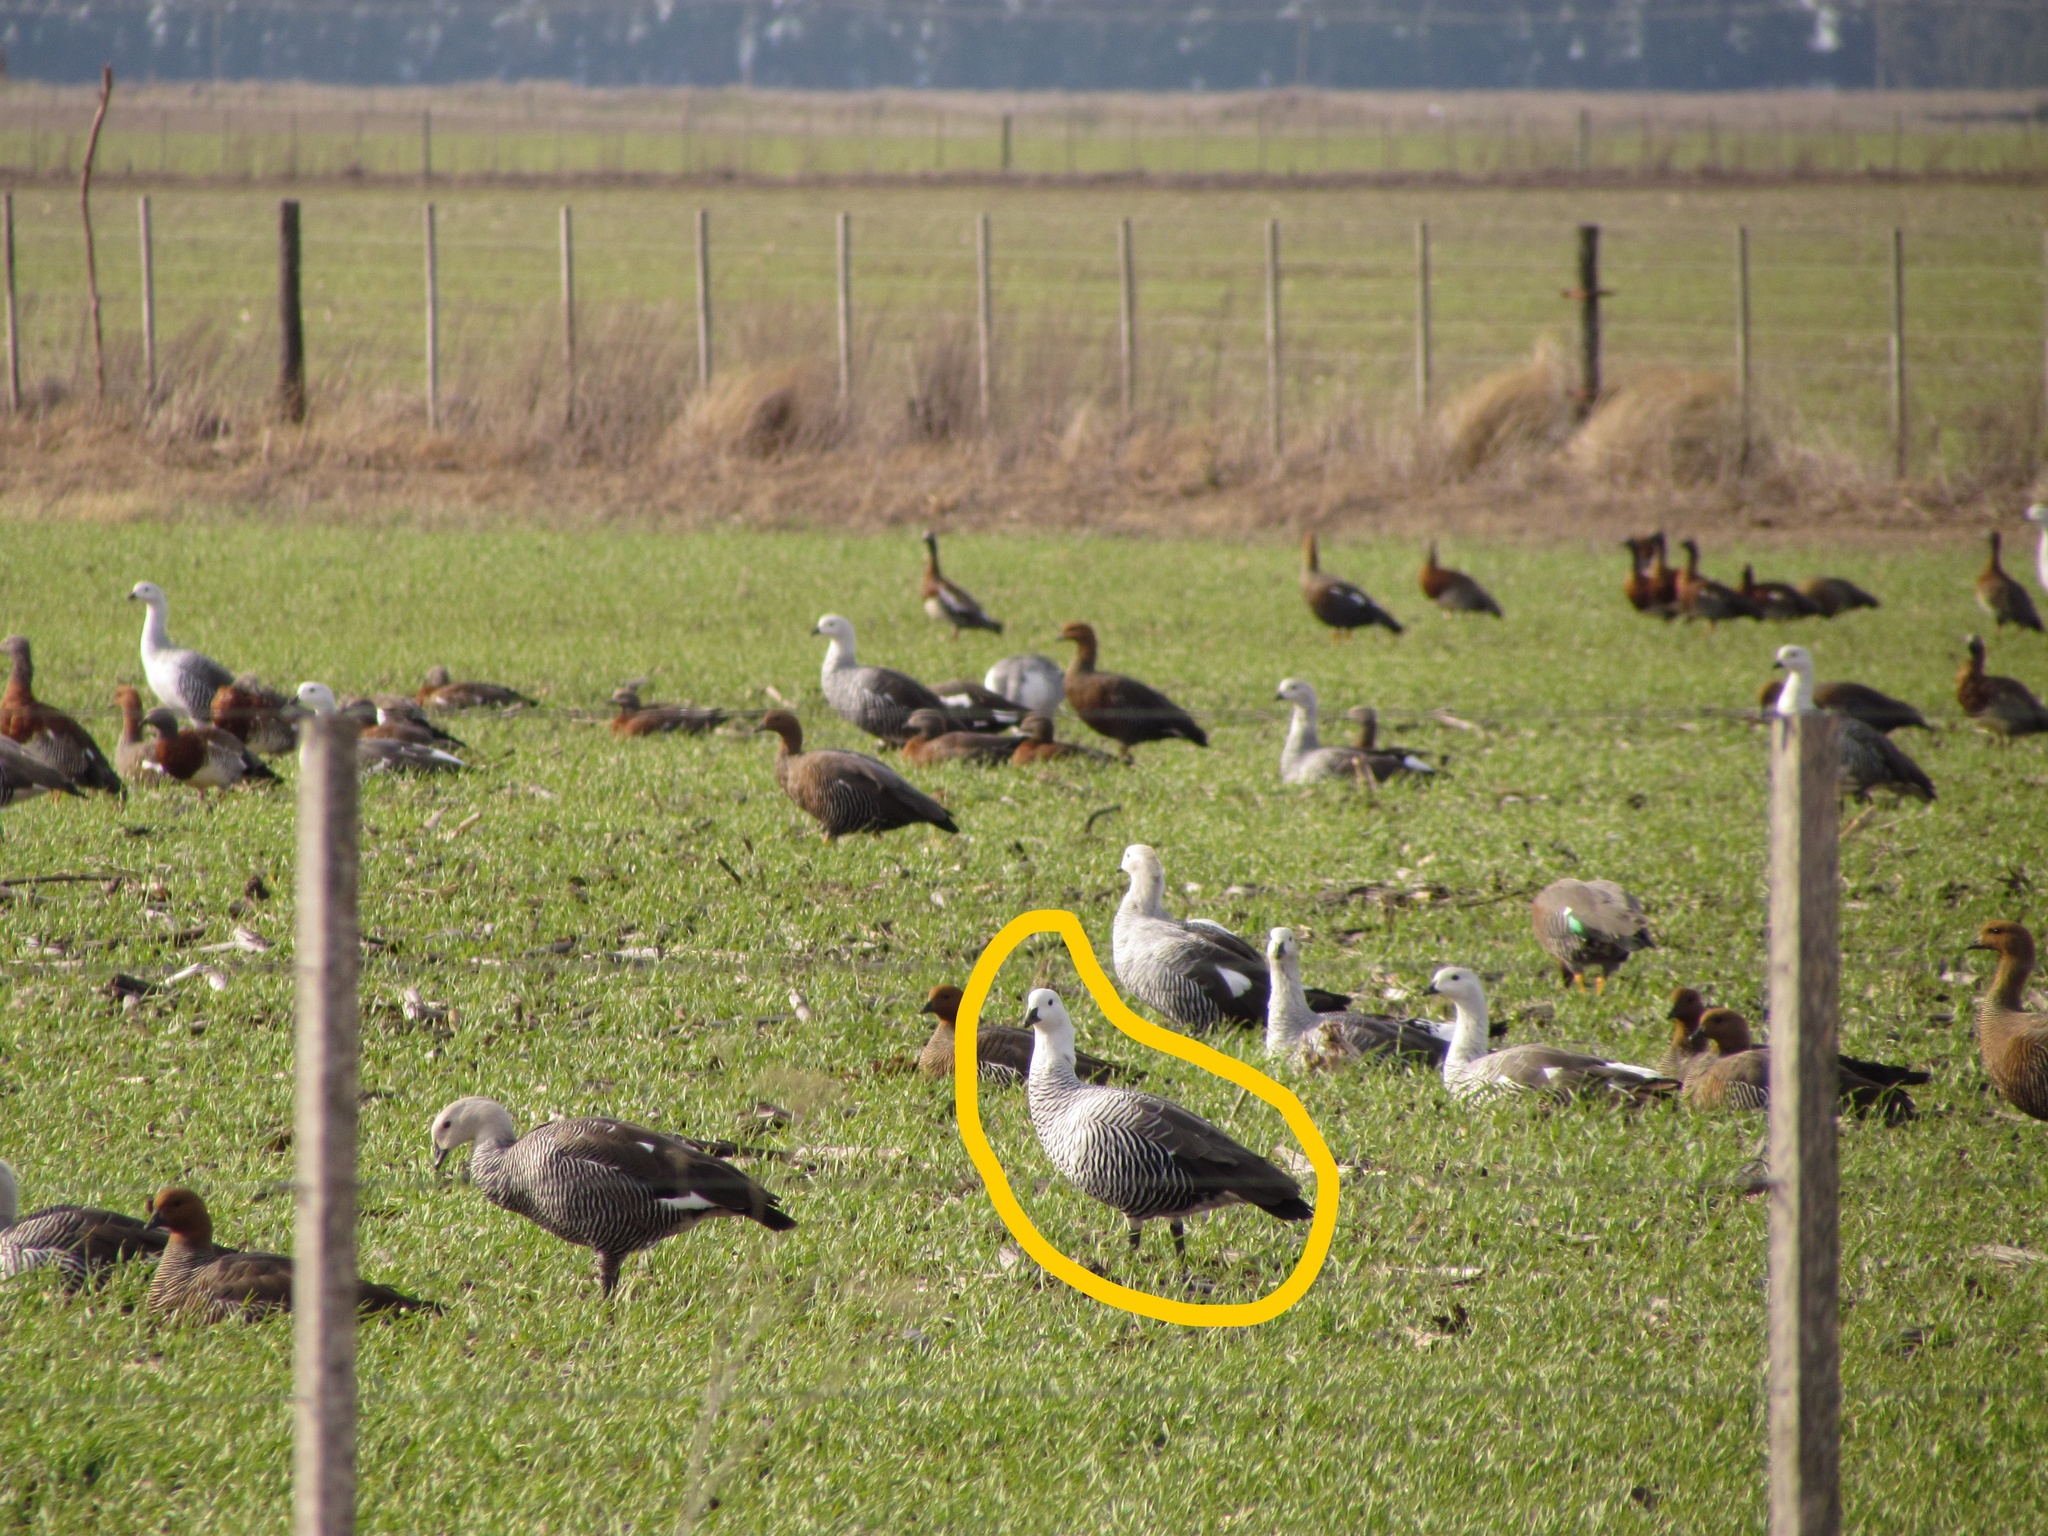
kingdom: Animalia
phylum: Chordata
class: Aves
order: Anseriformes
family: Anatidae
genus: Chloephaga
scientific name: Chloephaga picta
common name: Upland goose
